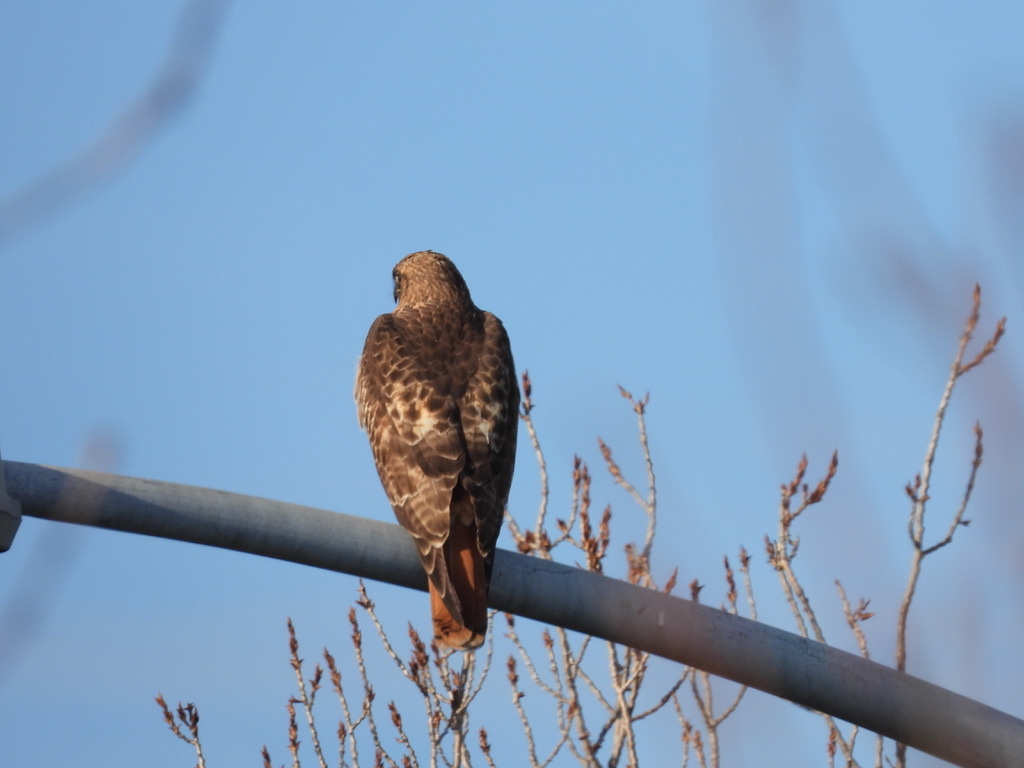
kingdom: Animalia
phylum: Chordata
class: Aves
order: Accipitriformes
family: Accipitridae
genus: Buteo
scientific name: Buteo jamaicensis
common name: Red-tailed hawk
